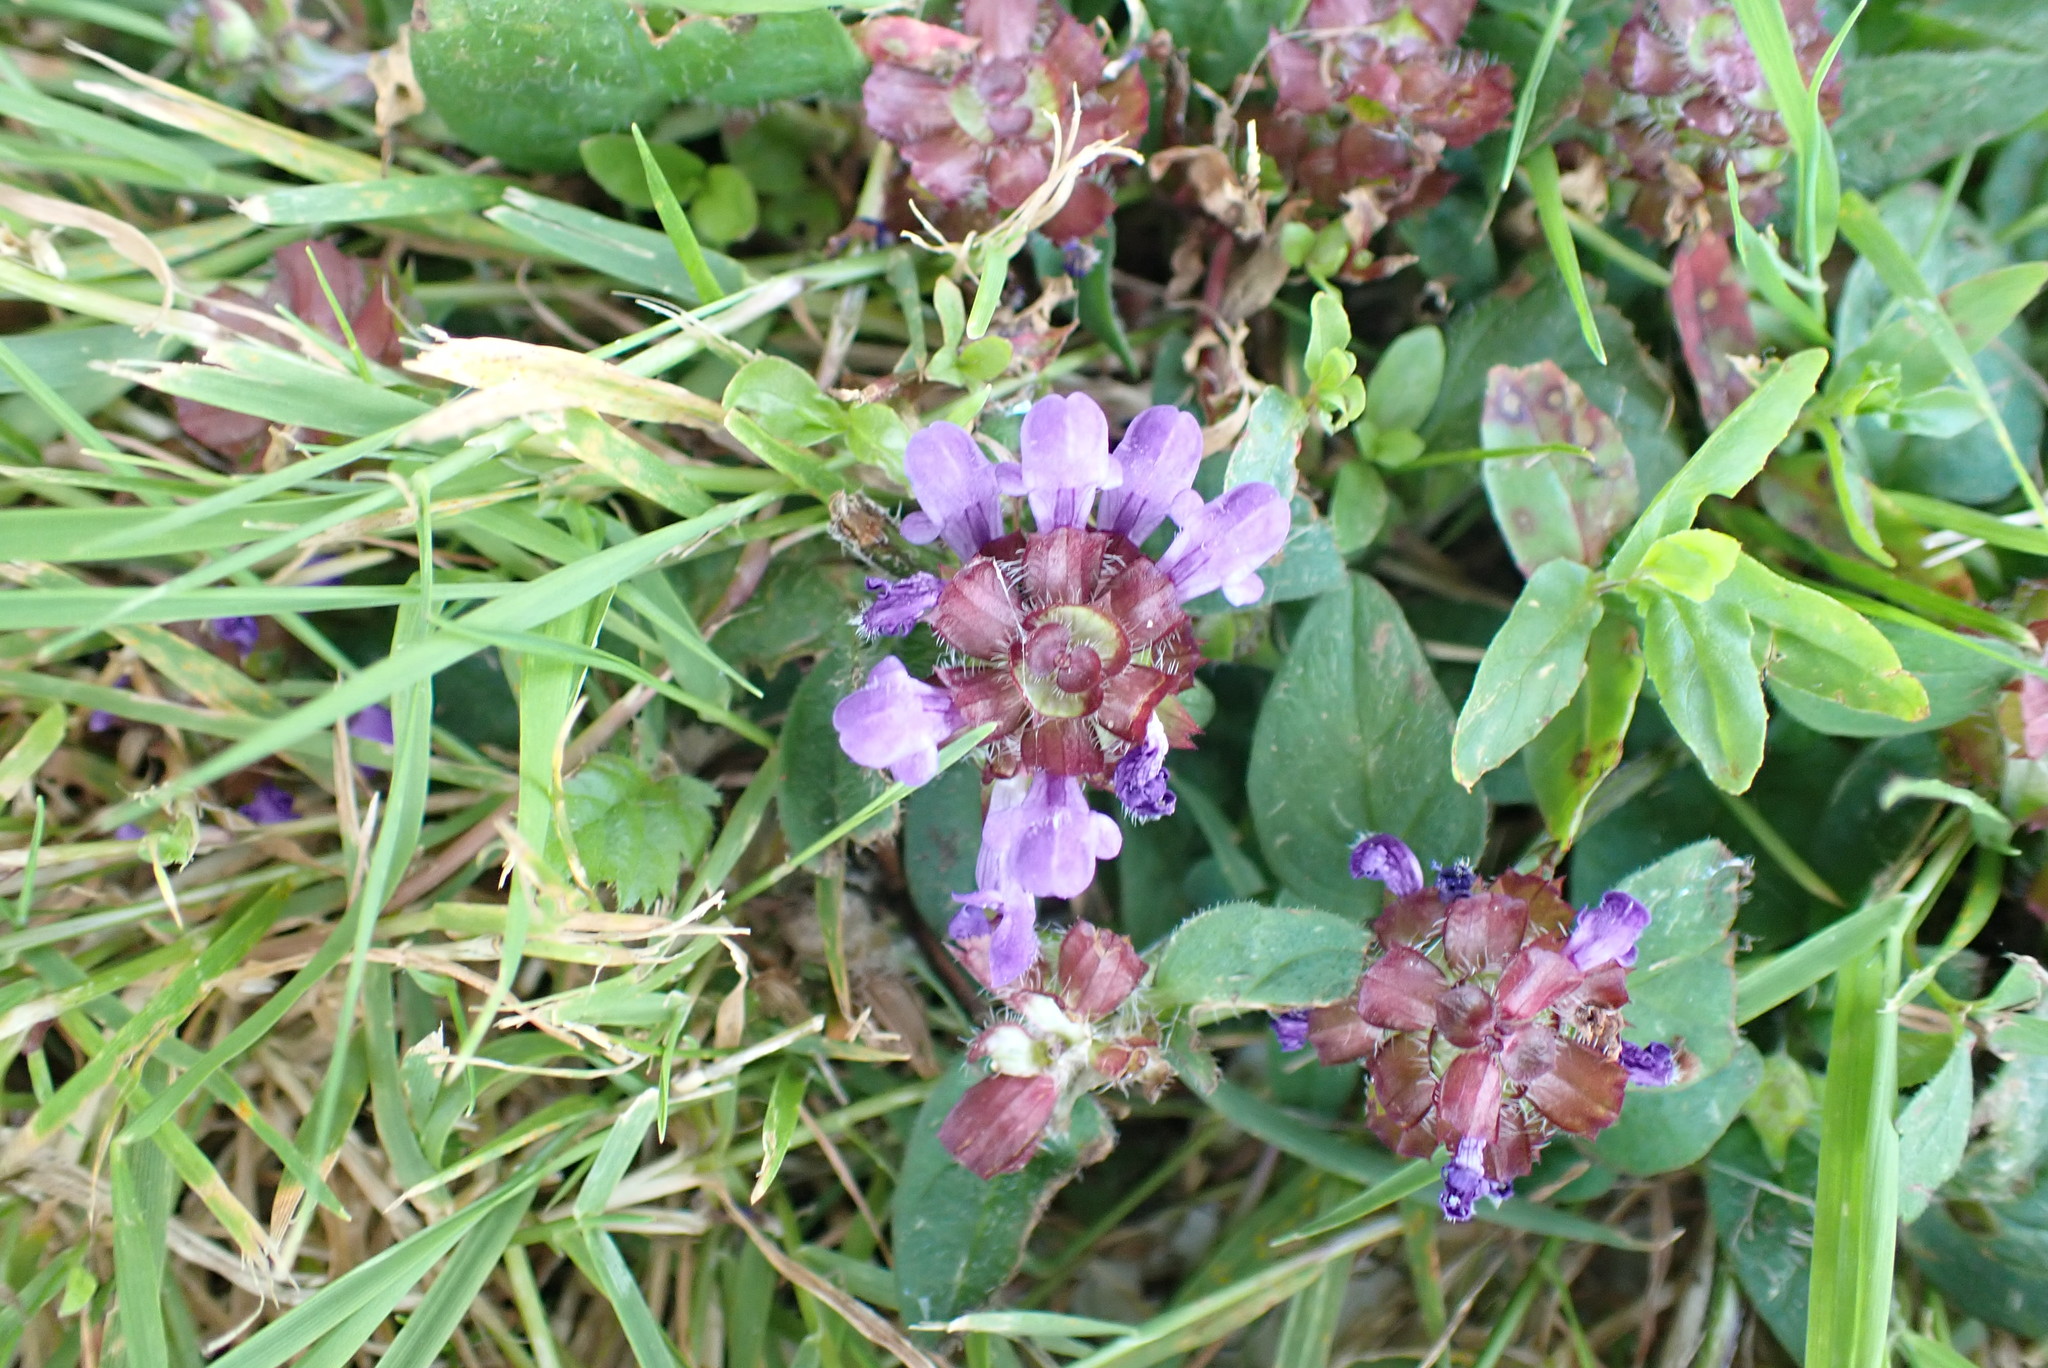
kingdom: Plantae
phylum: Tracheophyta
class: Magnoliopsida
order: Lamiales
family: Lamiaceae
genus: Prunella
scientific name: Prunella vulgaris
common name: Heal-all
